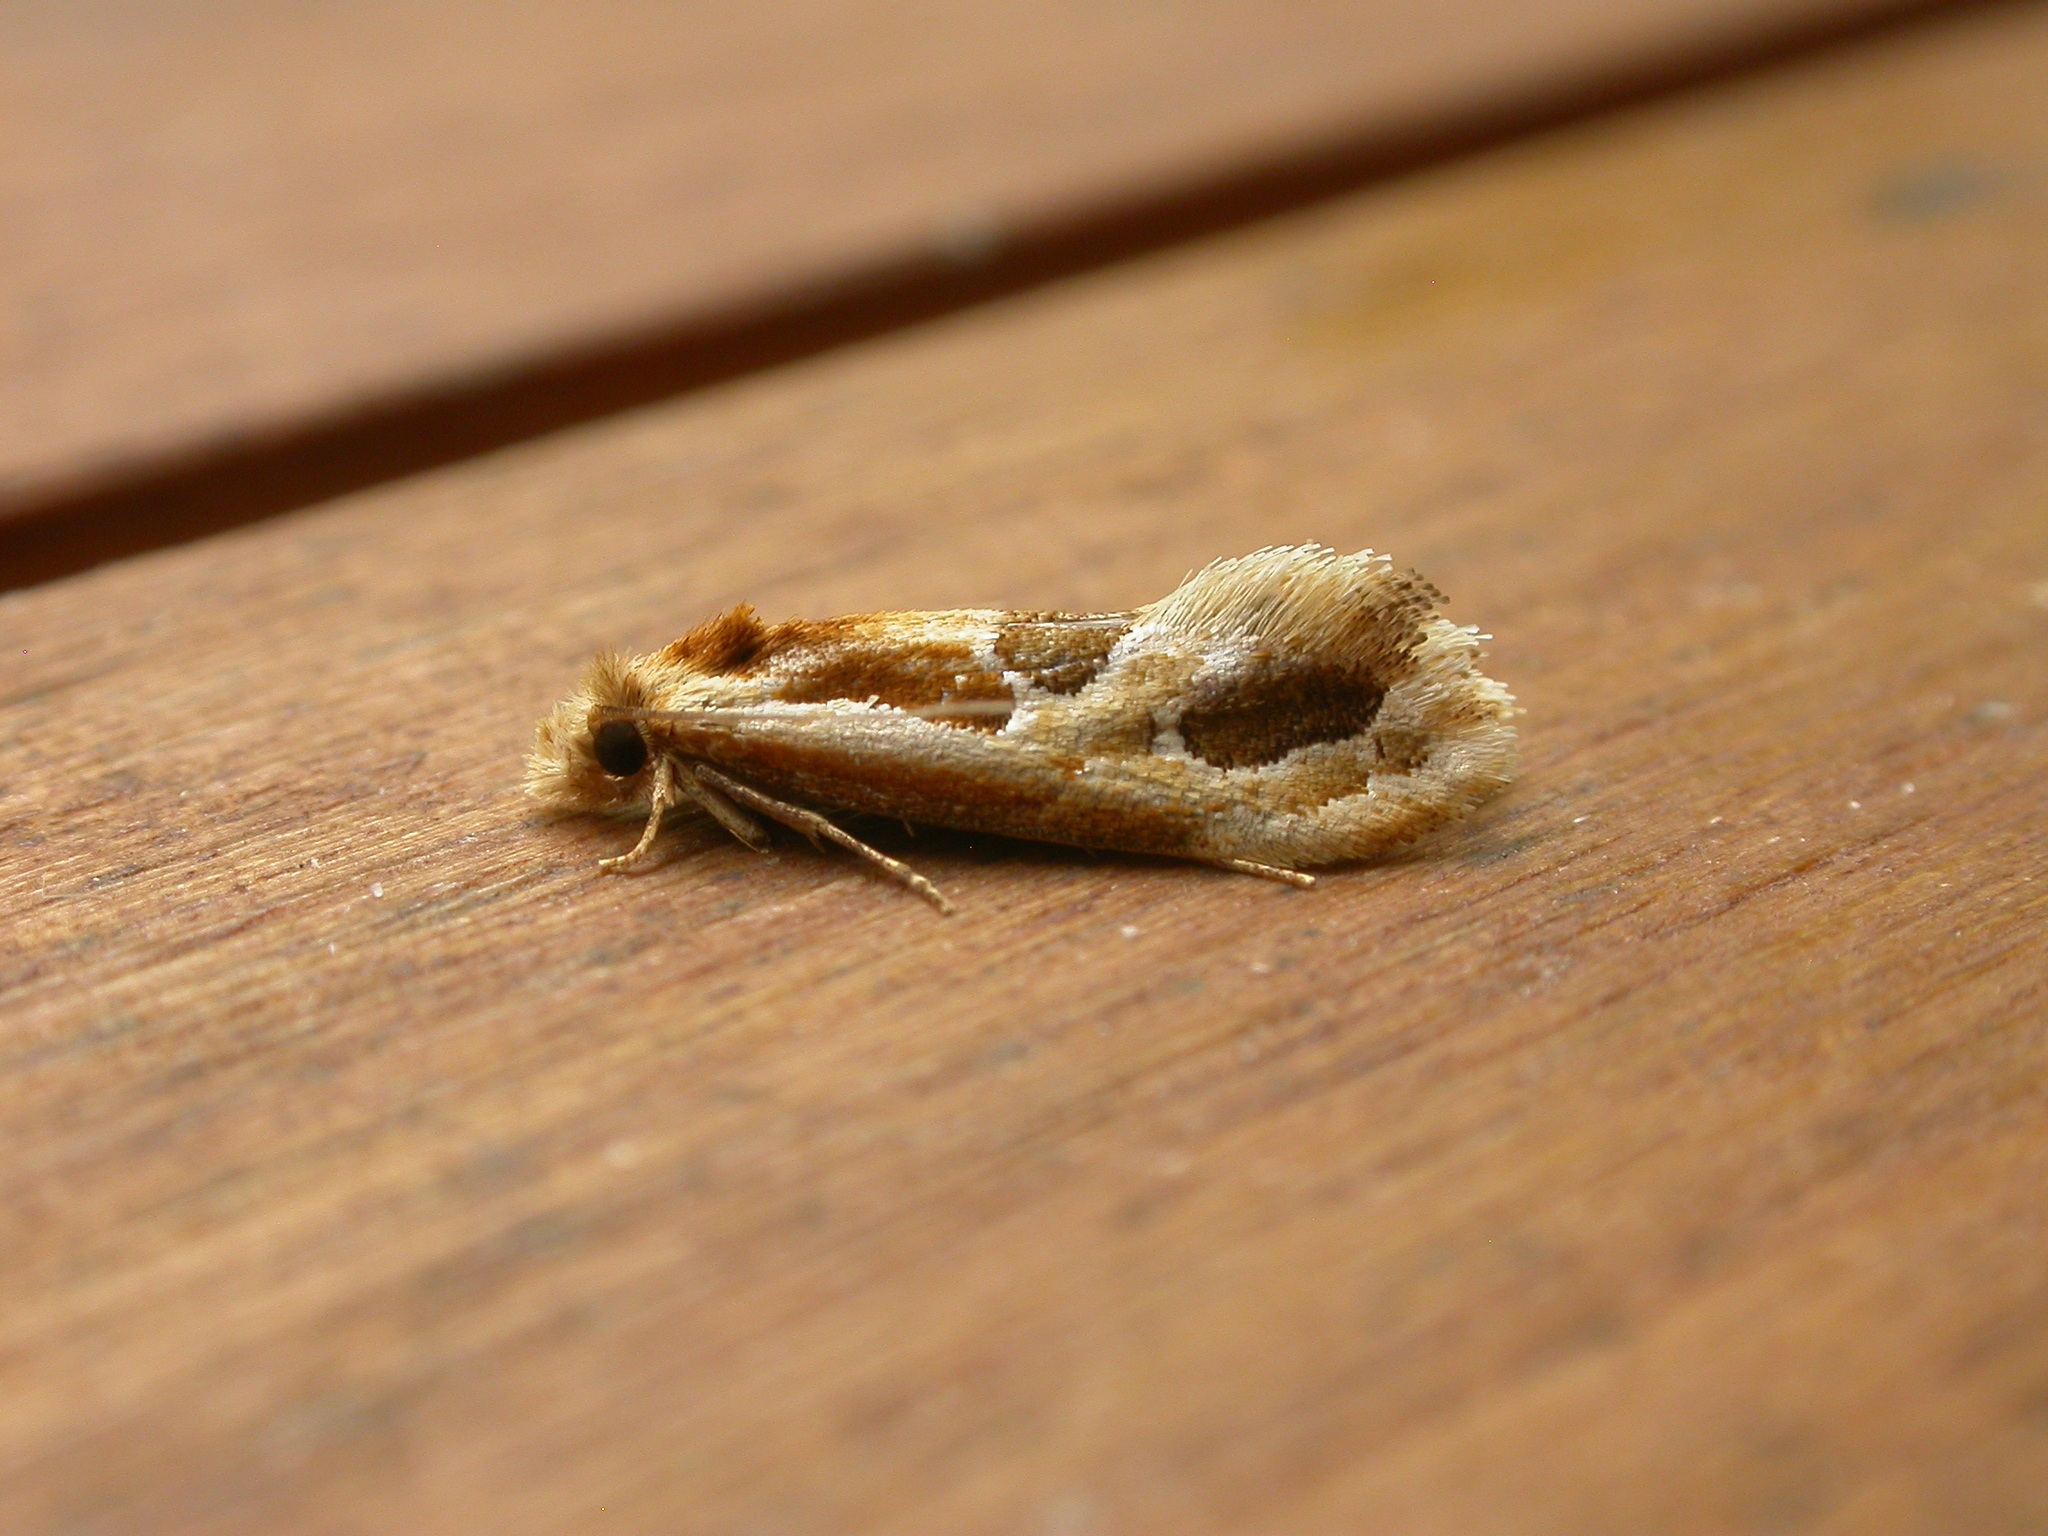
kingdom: Animalia
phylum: Arthropoda
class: Insecta
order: Lepidoptera
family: Tineidae
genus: Moerarchis
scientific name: Moerarchis placomorpha
